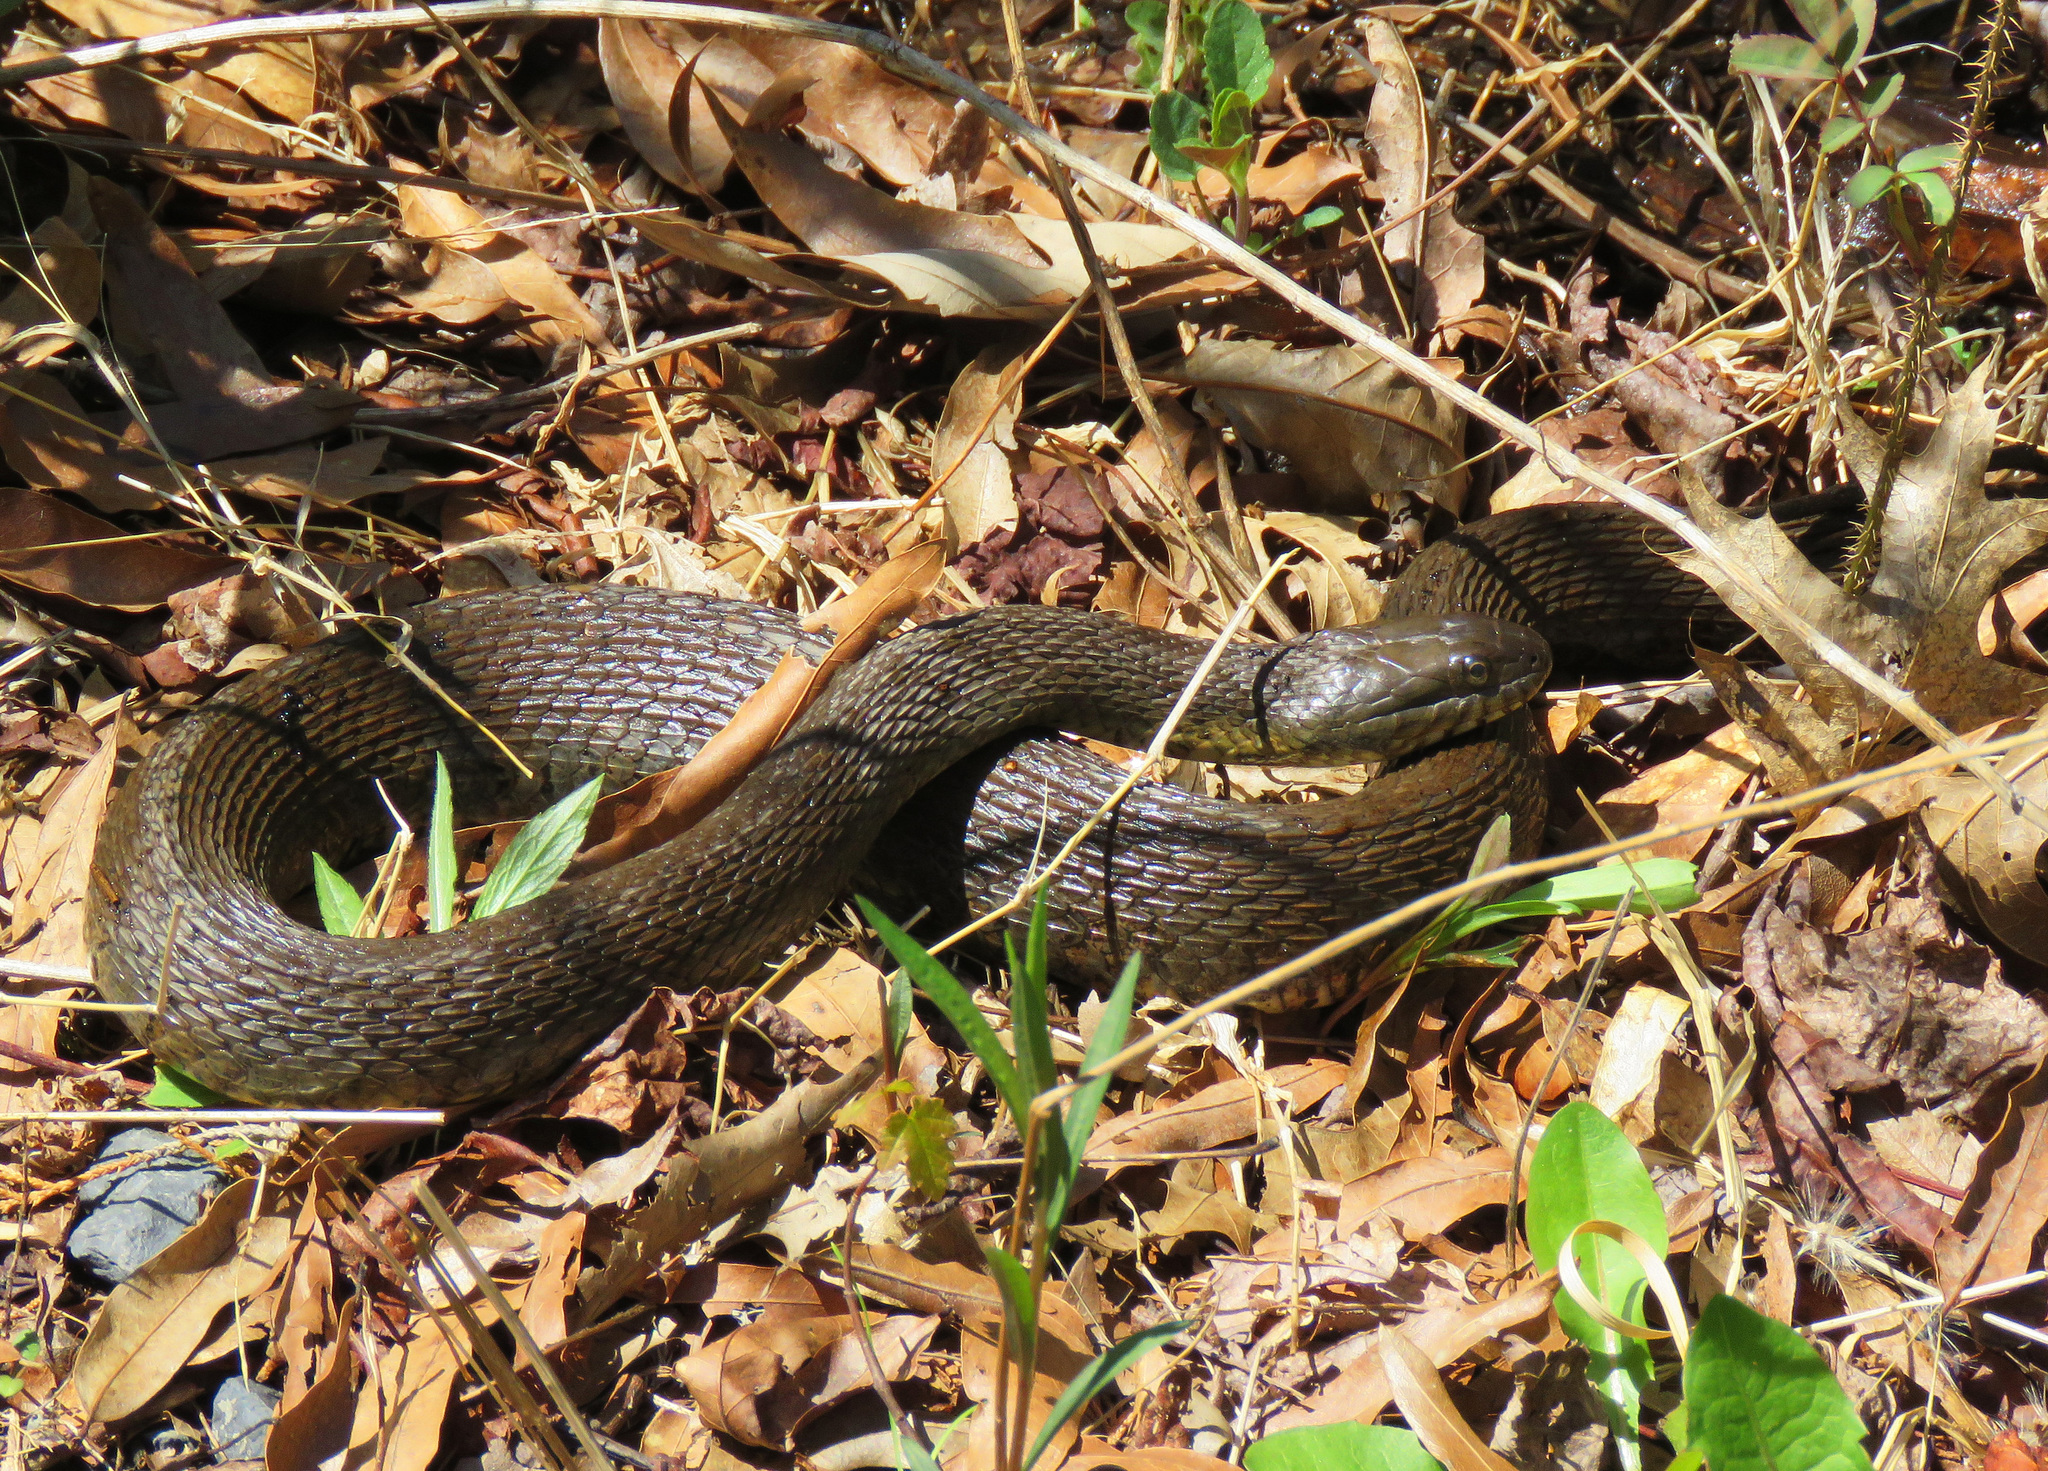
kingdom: Animalia
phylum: Chordata
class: Squamata
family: Colubridae
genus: Nerodia
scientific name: Nerodia sipedon
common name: Northern water snake
